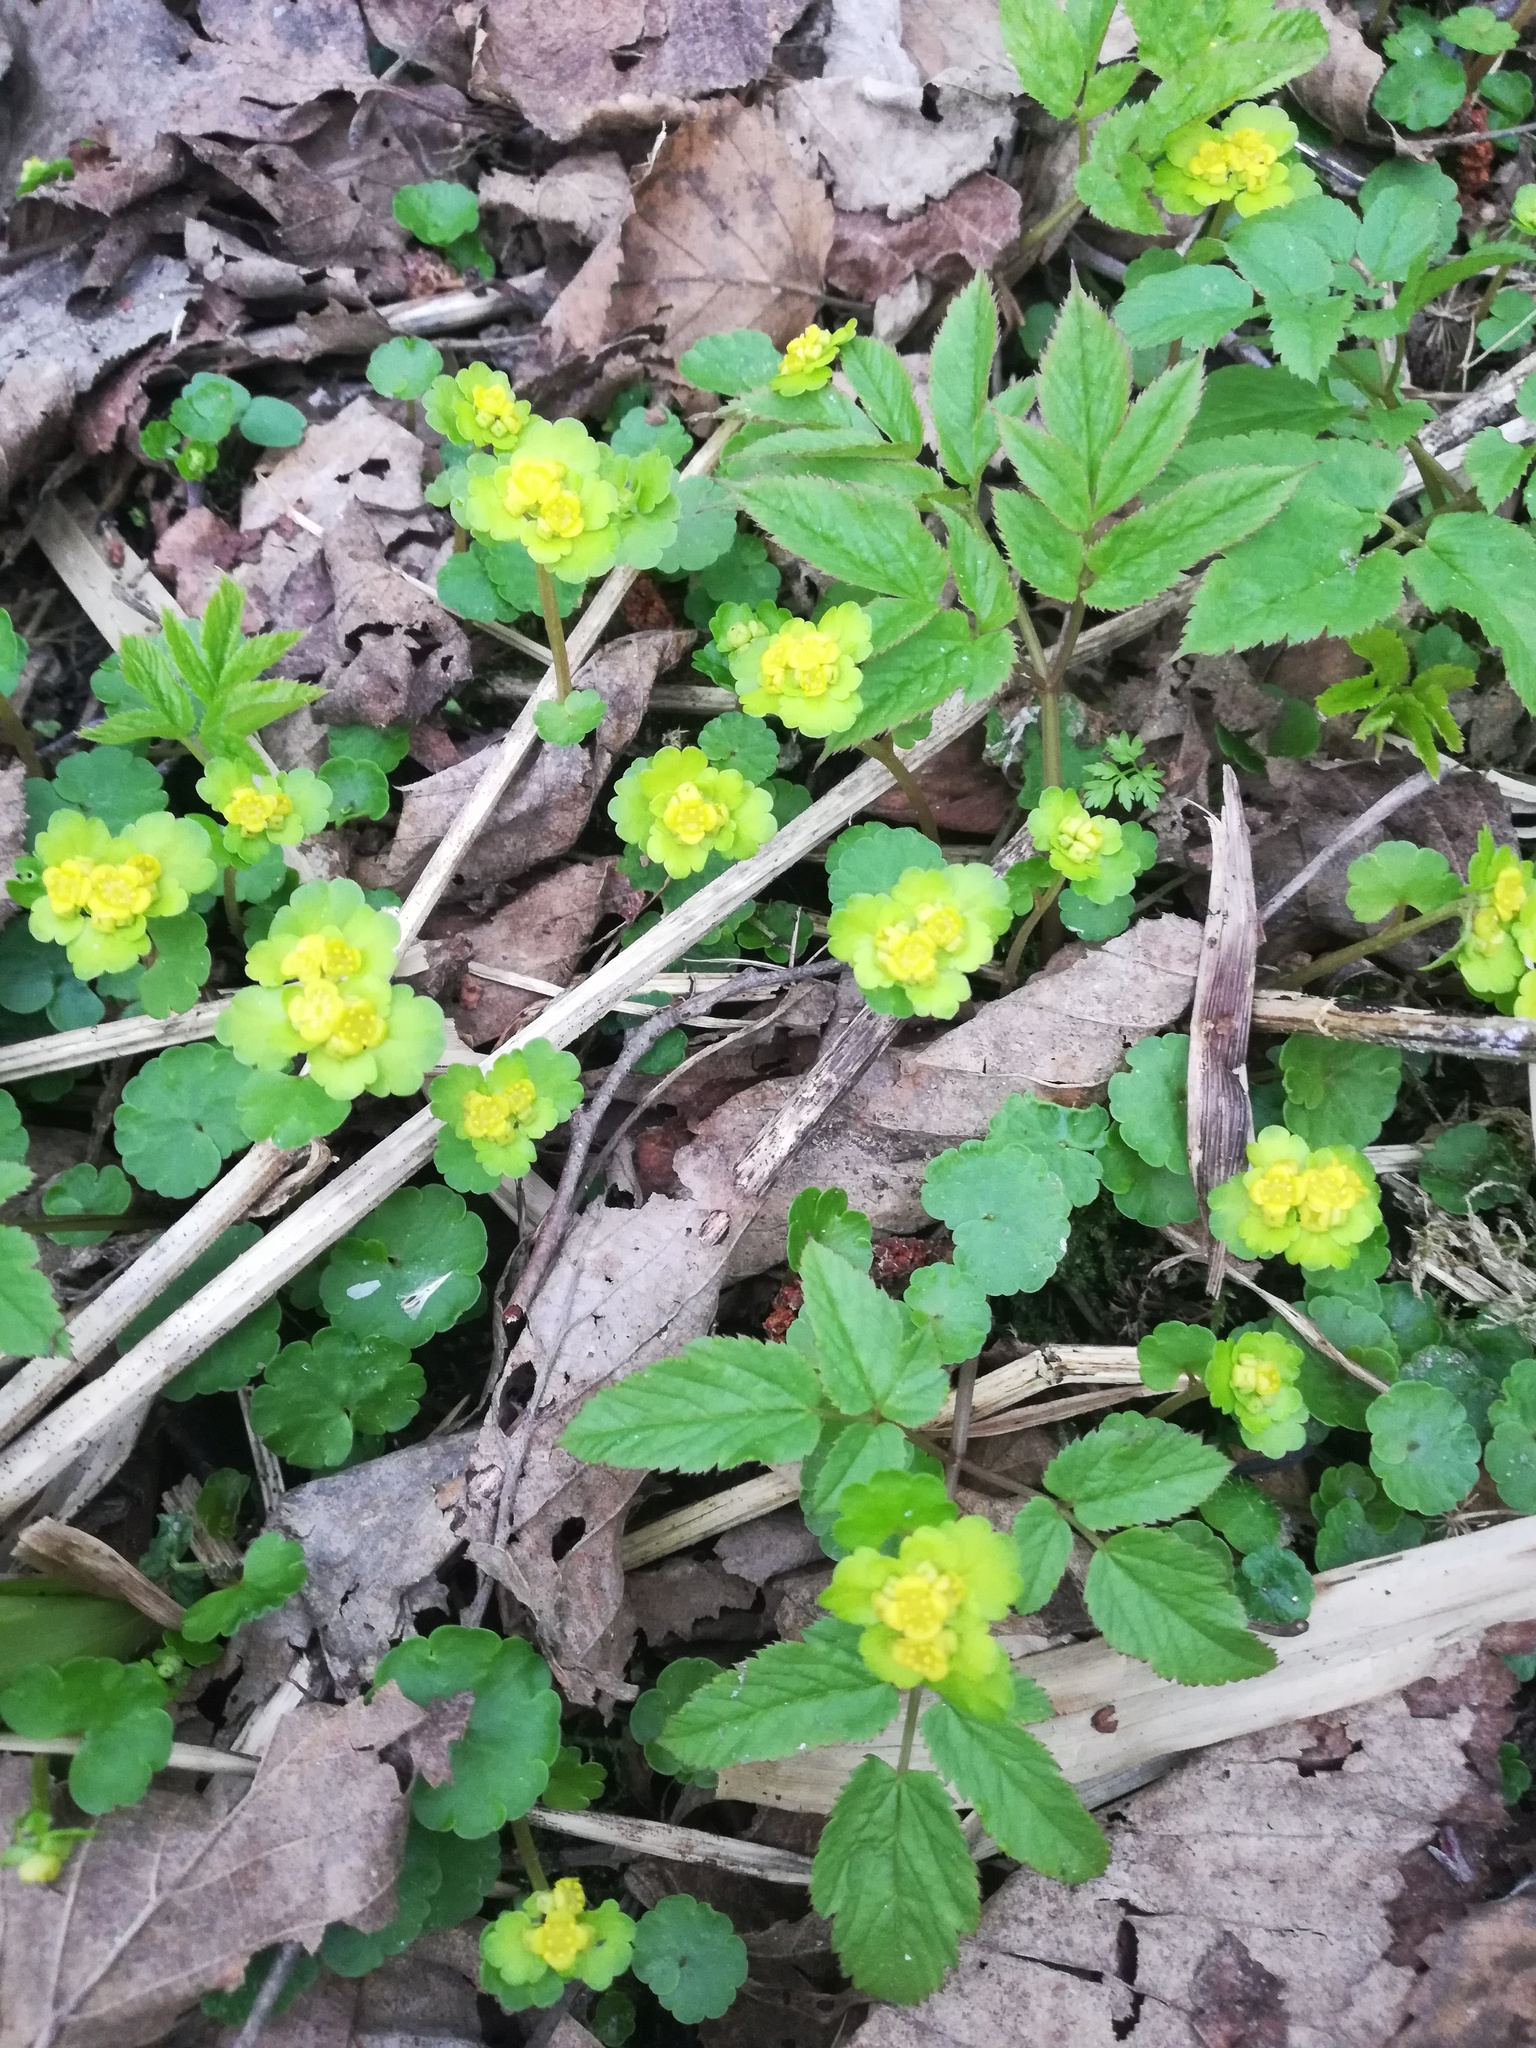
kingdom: Plantae
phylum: Tracheophyta
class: Magnoliopsida
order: Saxifragales
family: Saxifragaceae
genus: Chrysosplenium
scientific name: Chrysosplenium alternifolium
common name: Alternate-leaved golden-saxifrage
